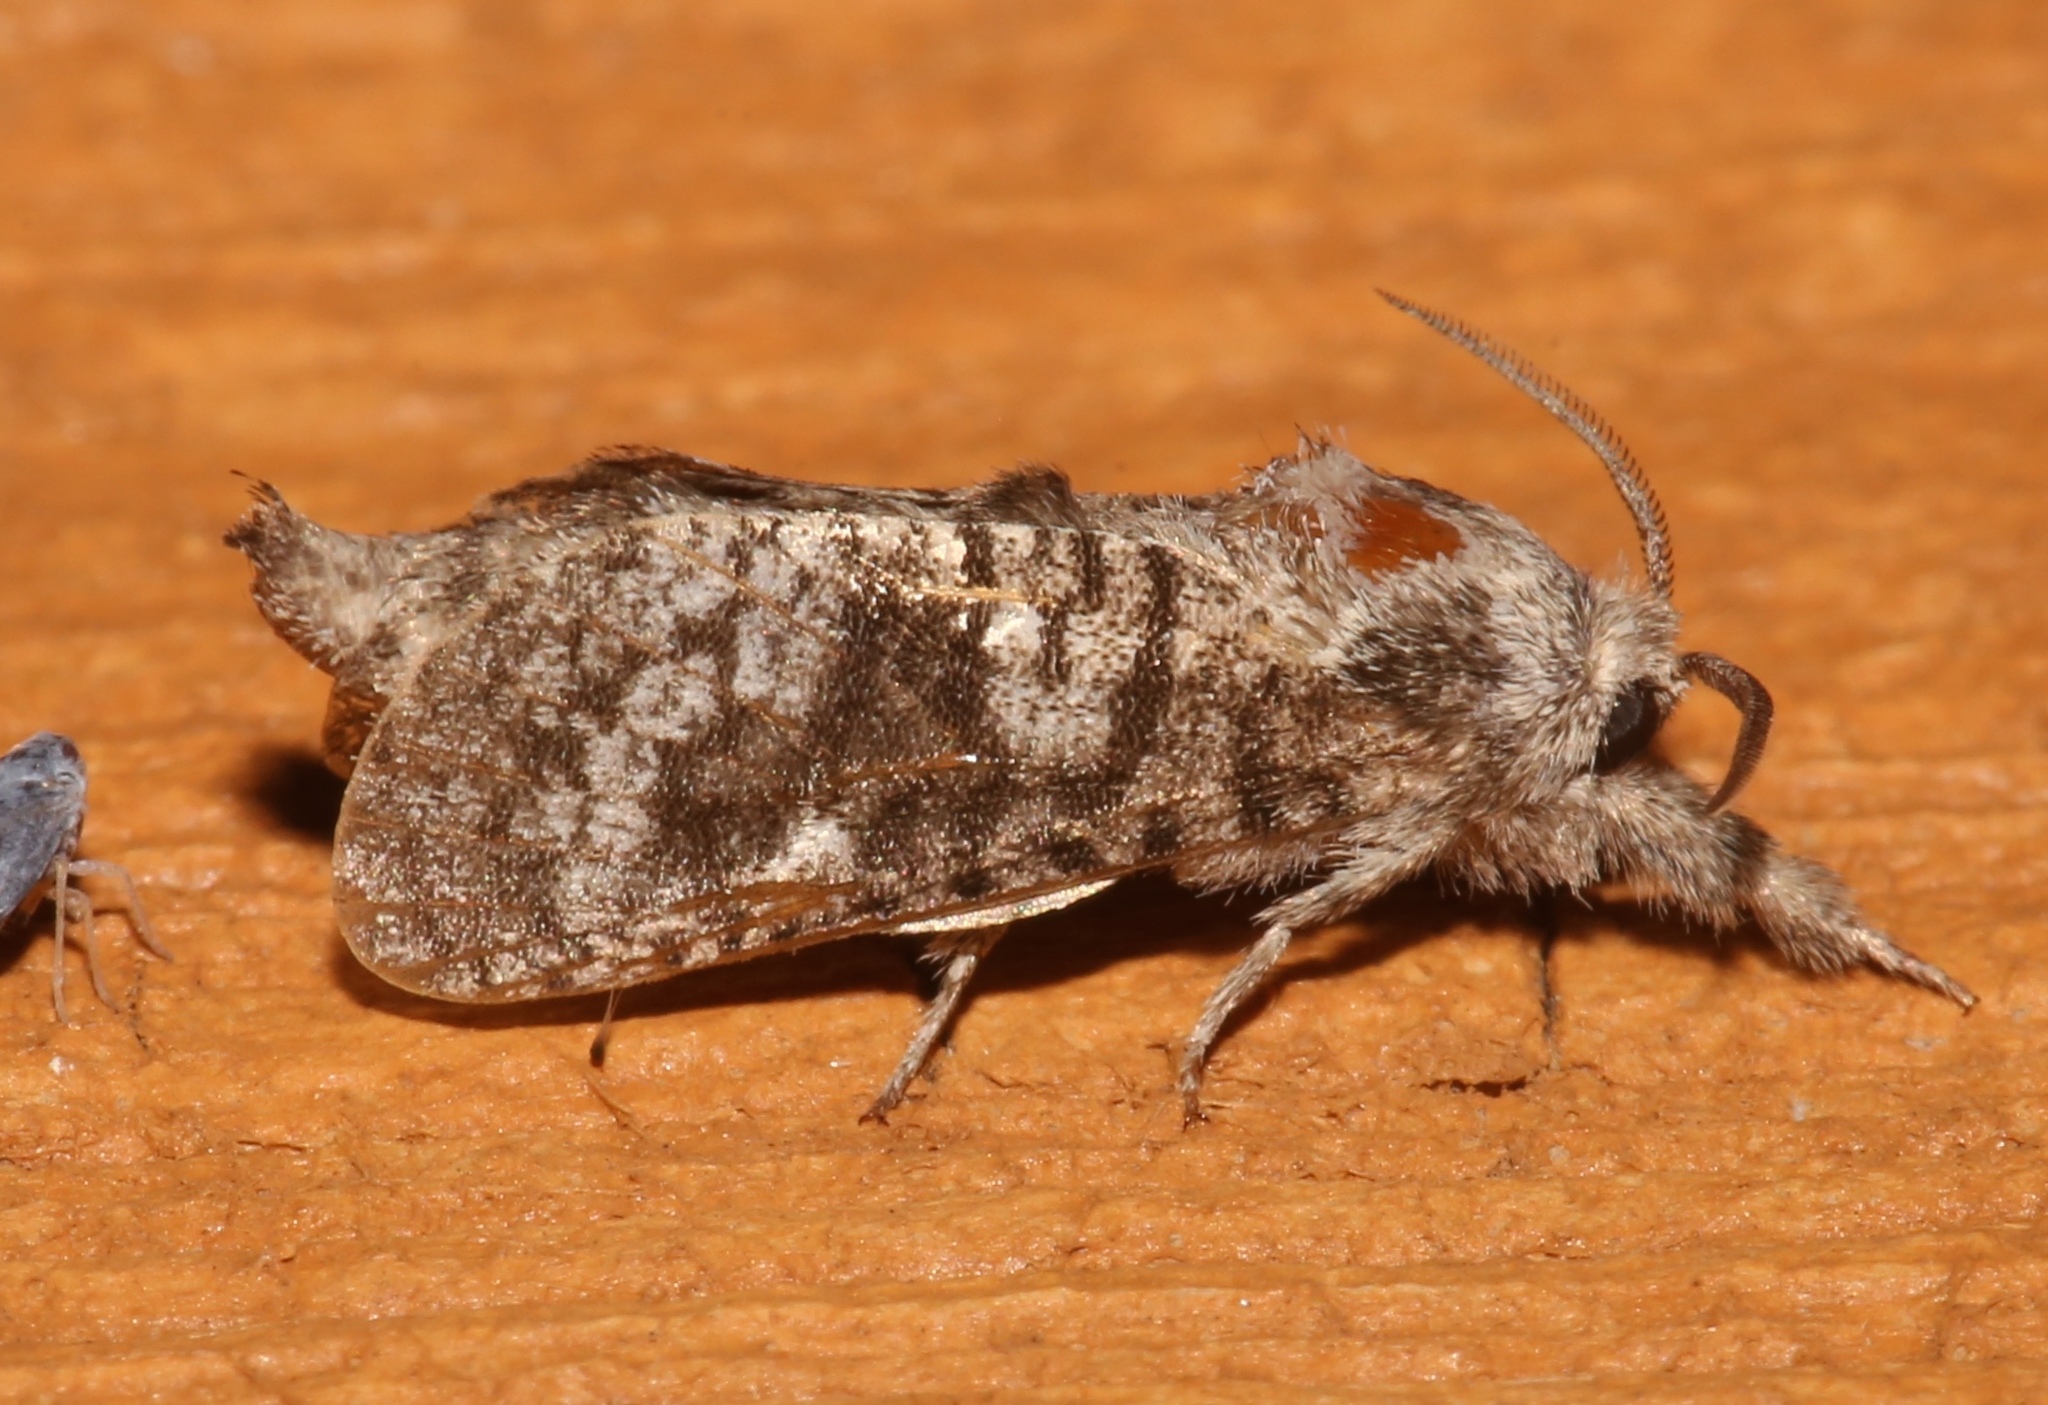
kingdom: Animalia
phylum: Arthropoda
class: Insecta
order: Lepidoptera
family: Cossidae
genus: Givira
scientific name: Givira francesca
